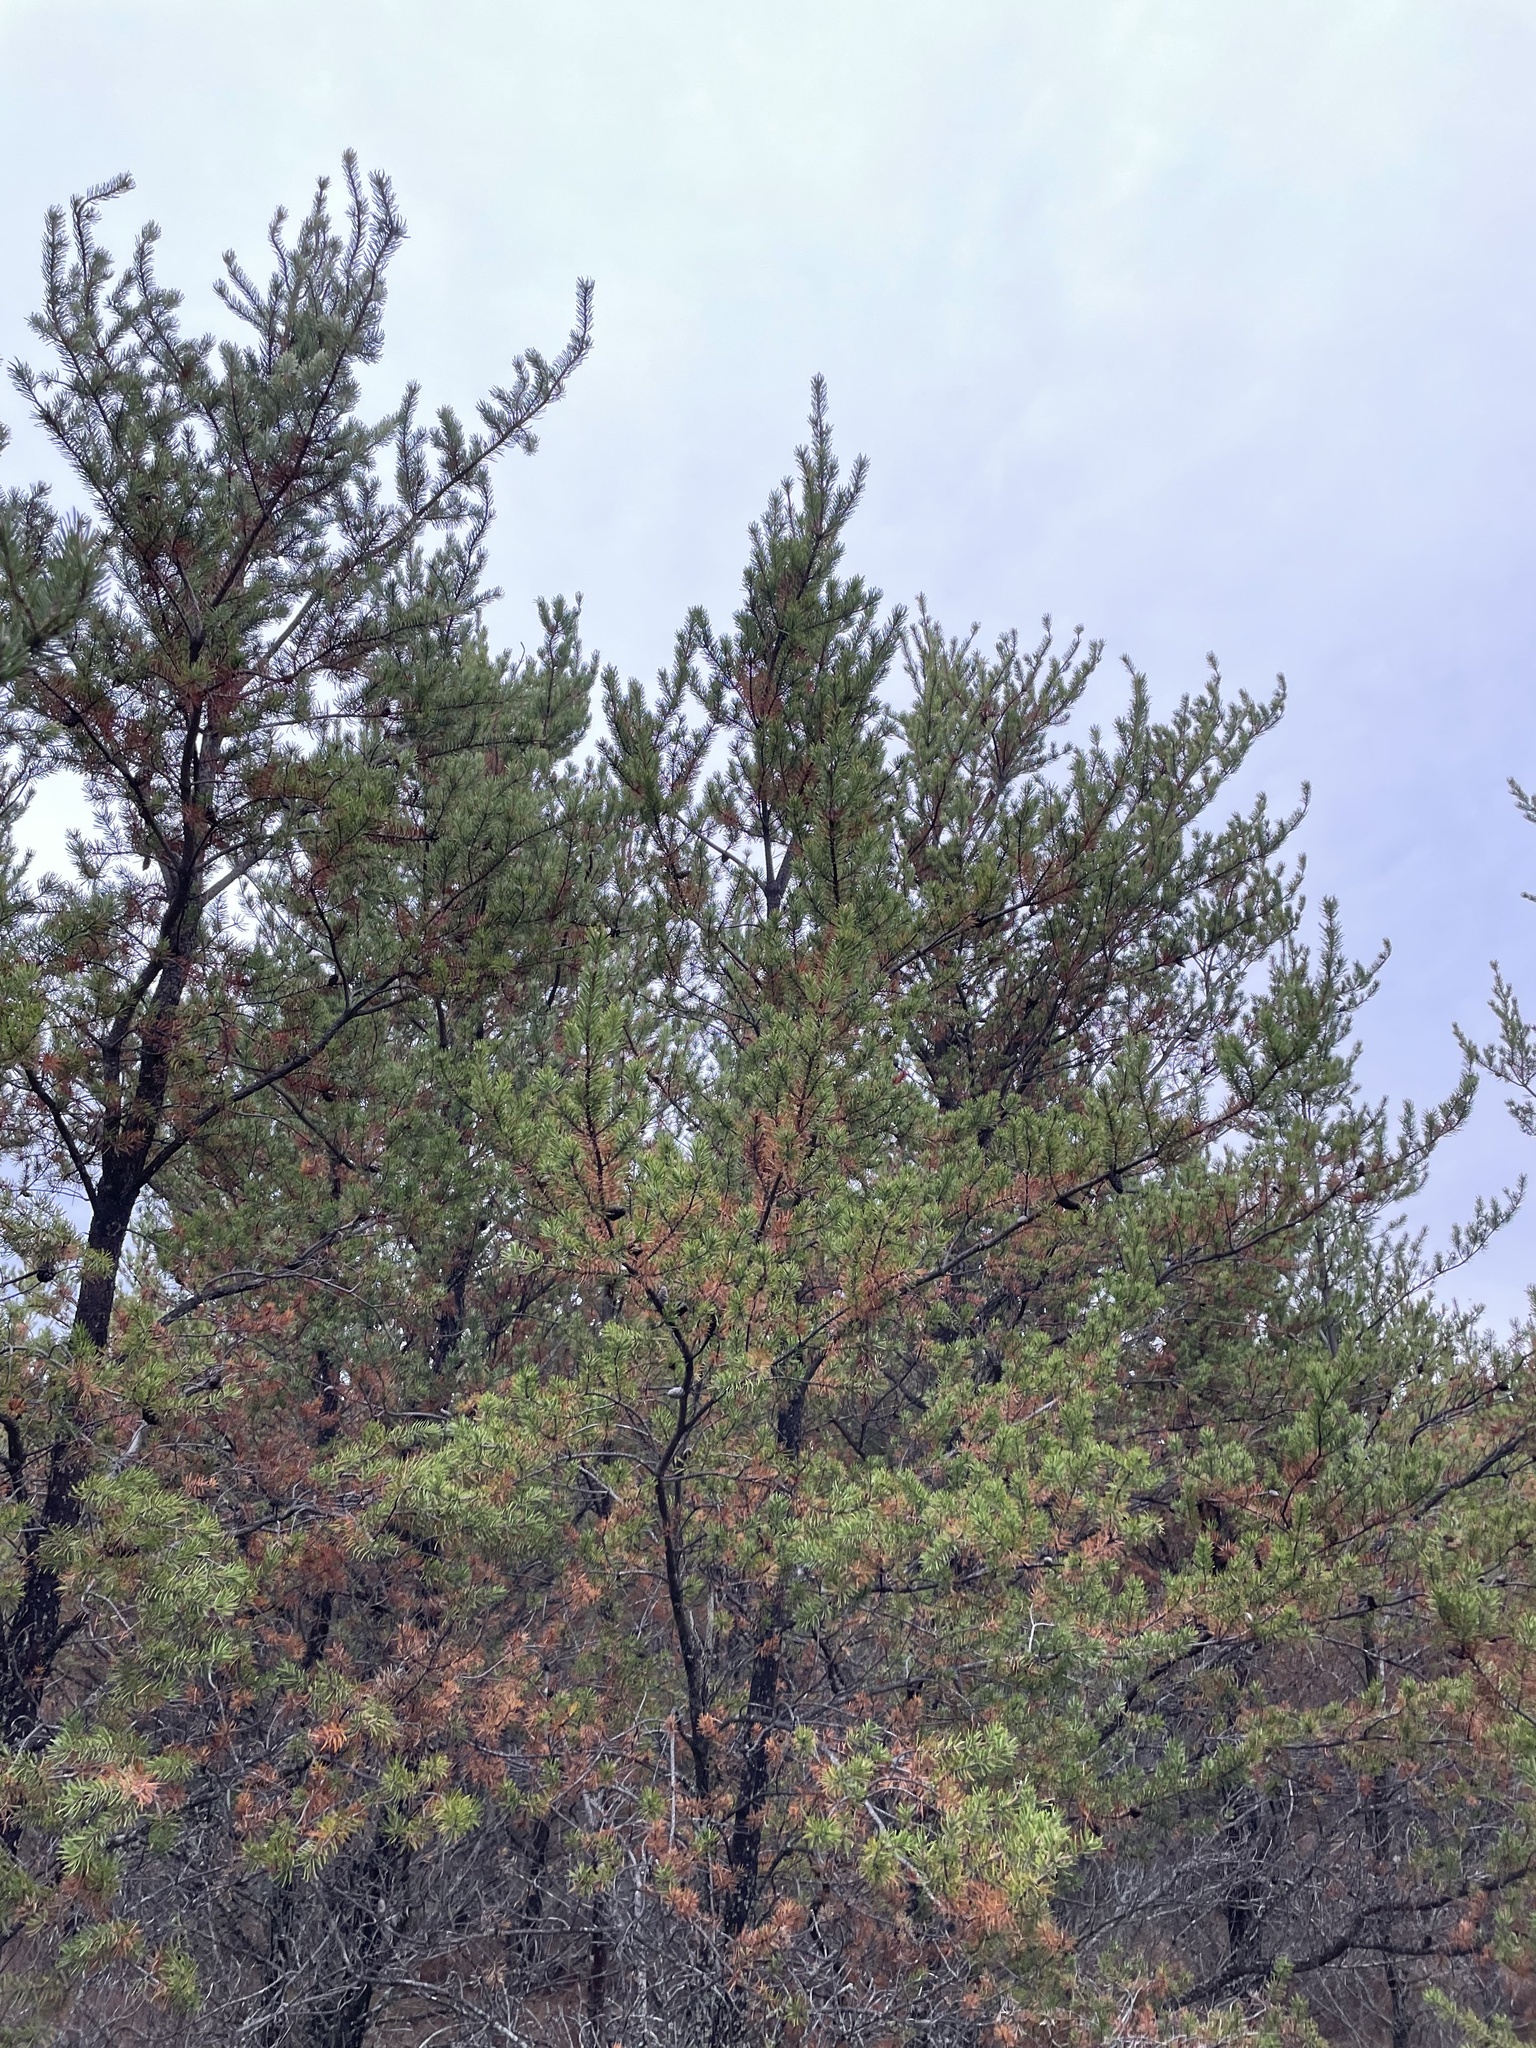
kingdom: Plantae
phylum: Tracheophyta
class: Pinopsida
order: Pinales
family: Pinaceae
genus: Pinus
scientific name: Pinus banksiana
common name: Jack pine
